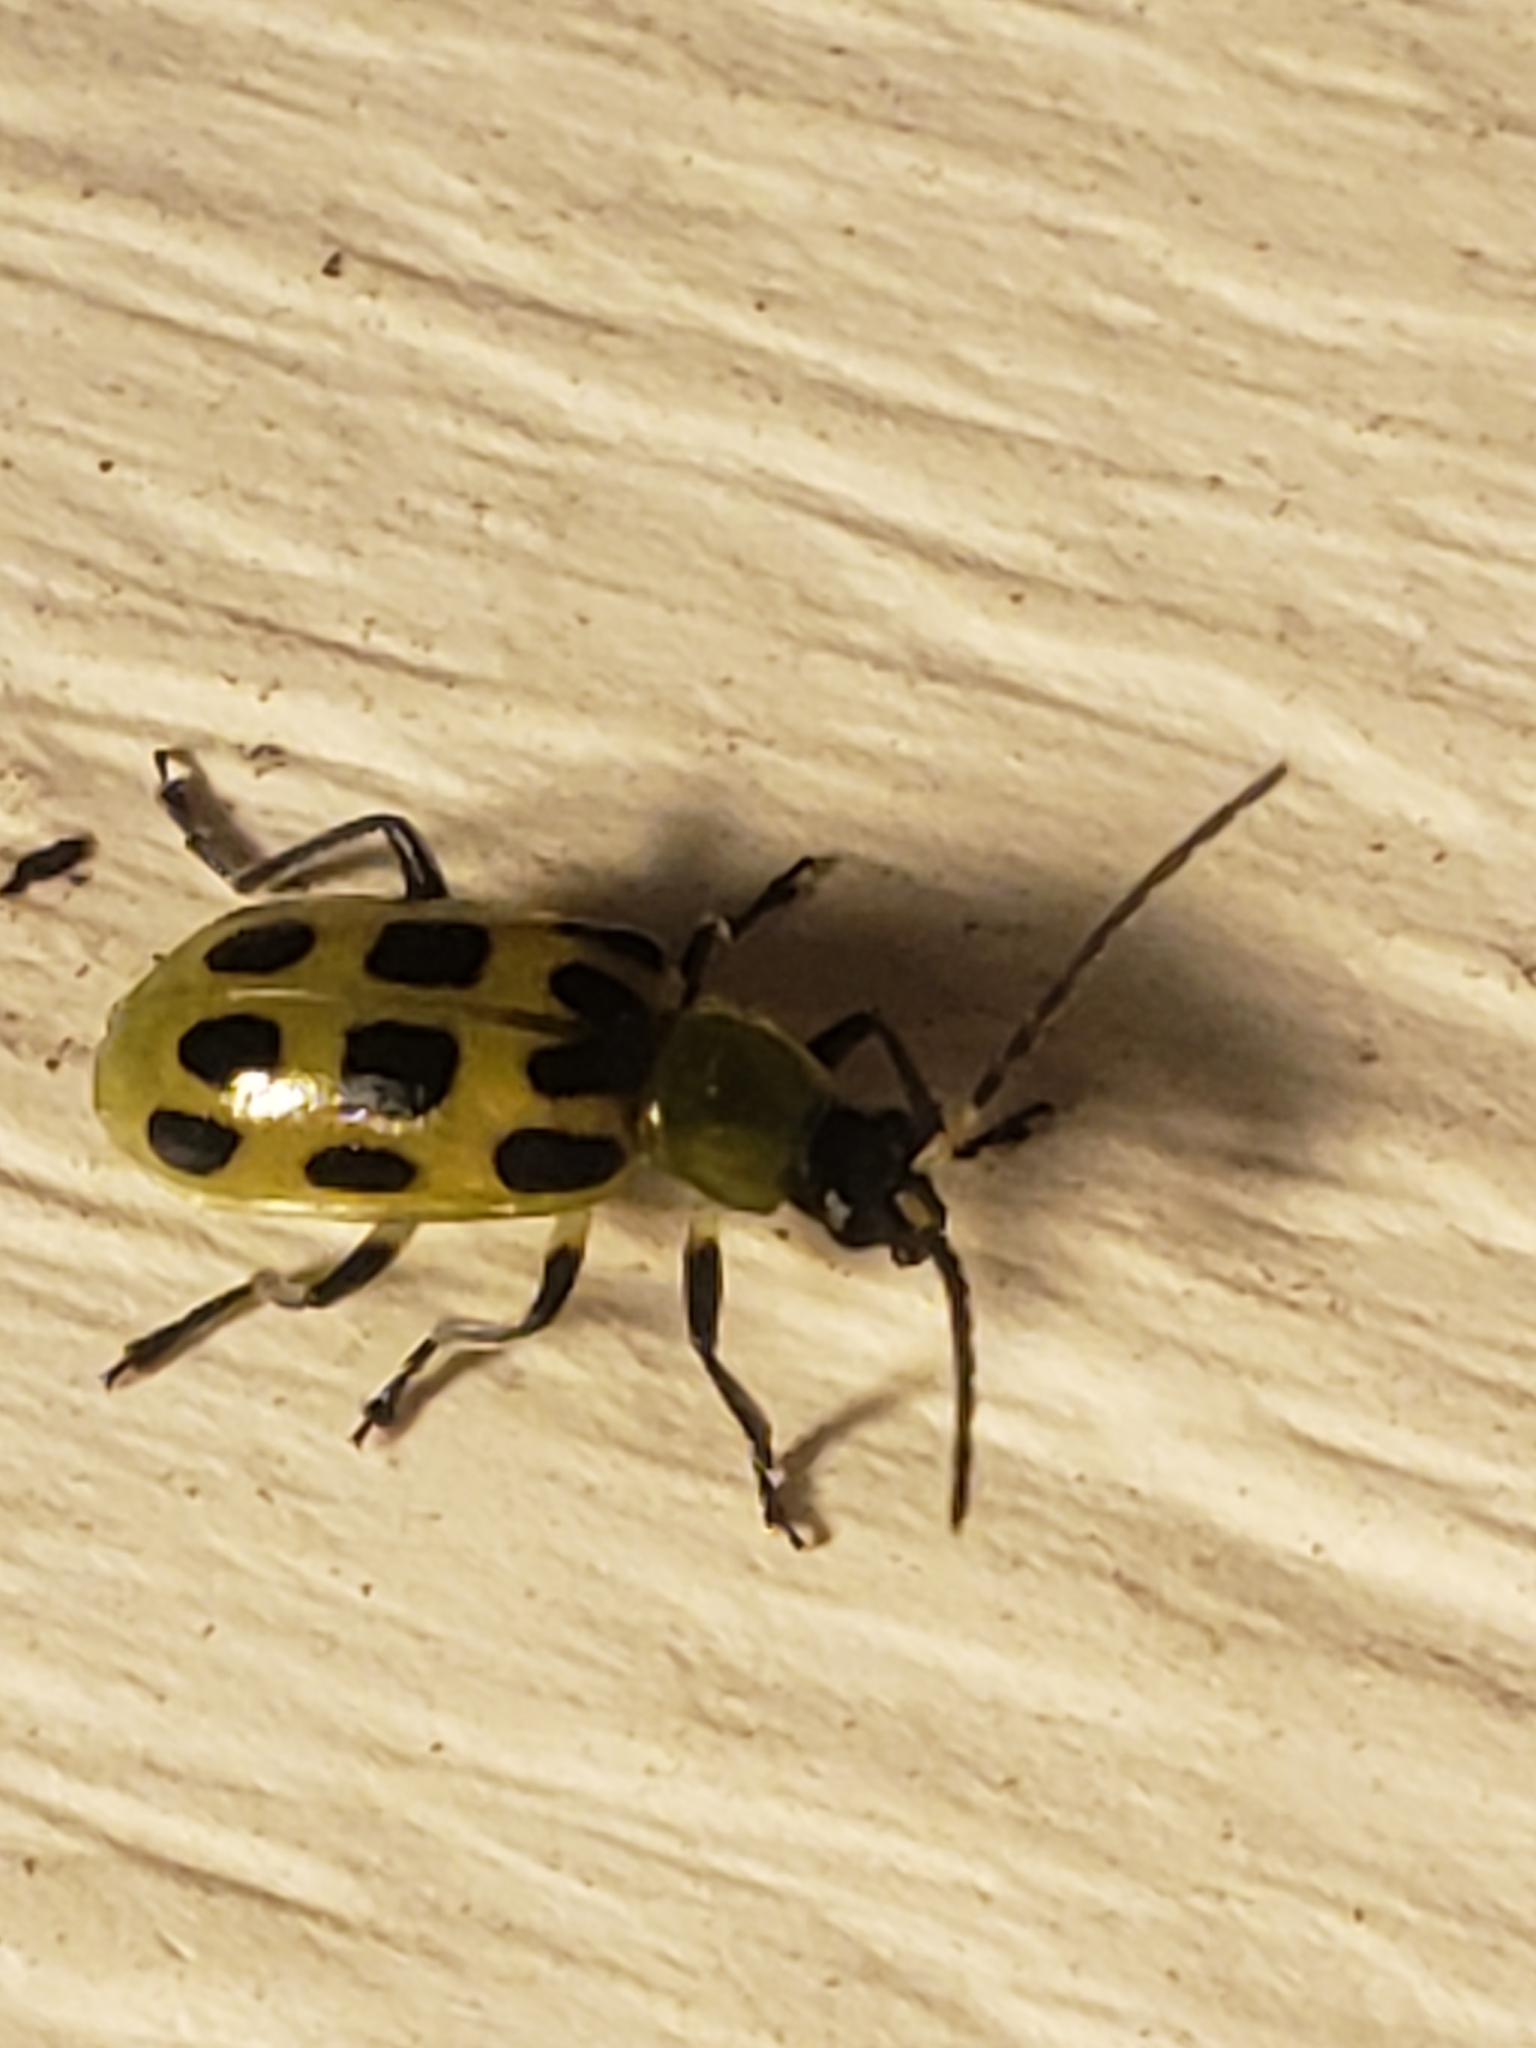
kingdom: Animalia
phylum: Arthropoda
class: Insecta
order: Coleoptera
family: Chrysomelidae
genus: Diabrotica
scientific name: Diabrotica undecimpunctata
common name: Spotted cucumber beetle
